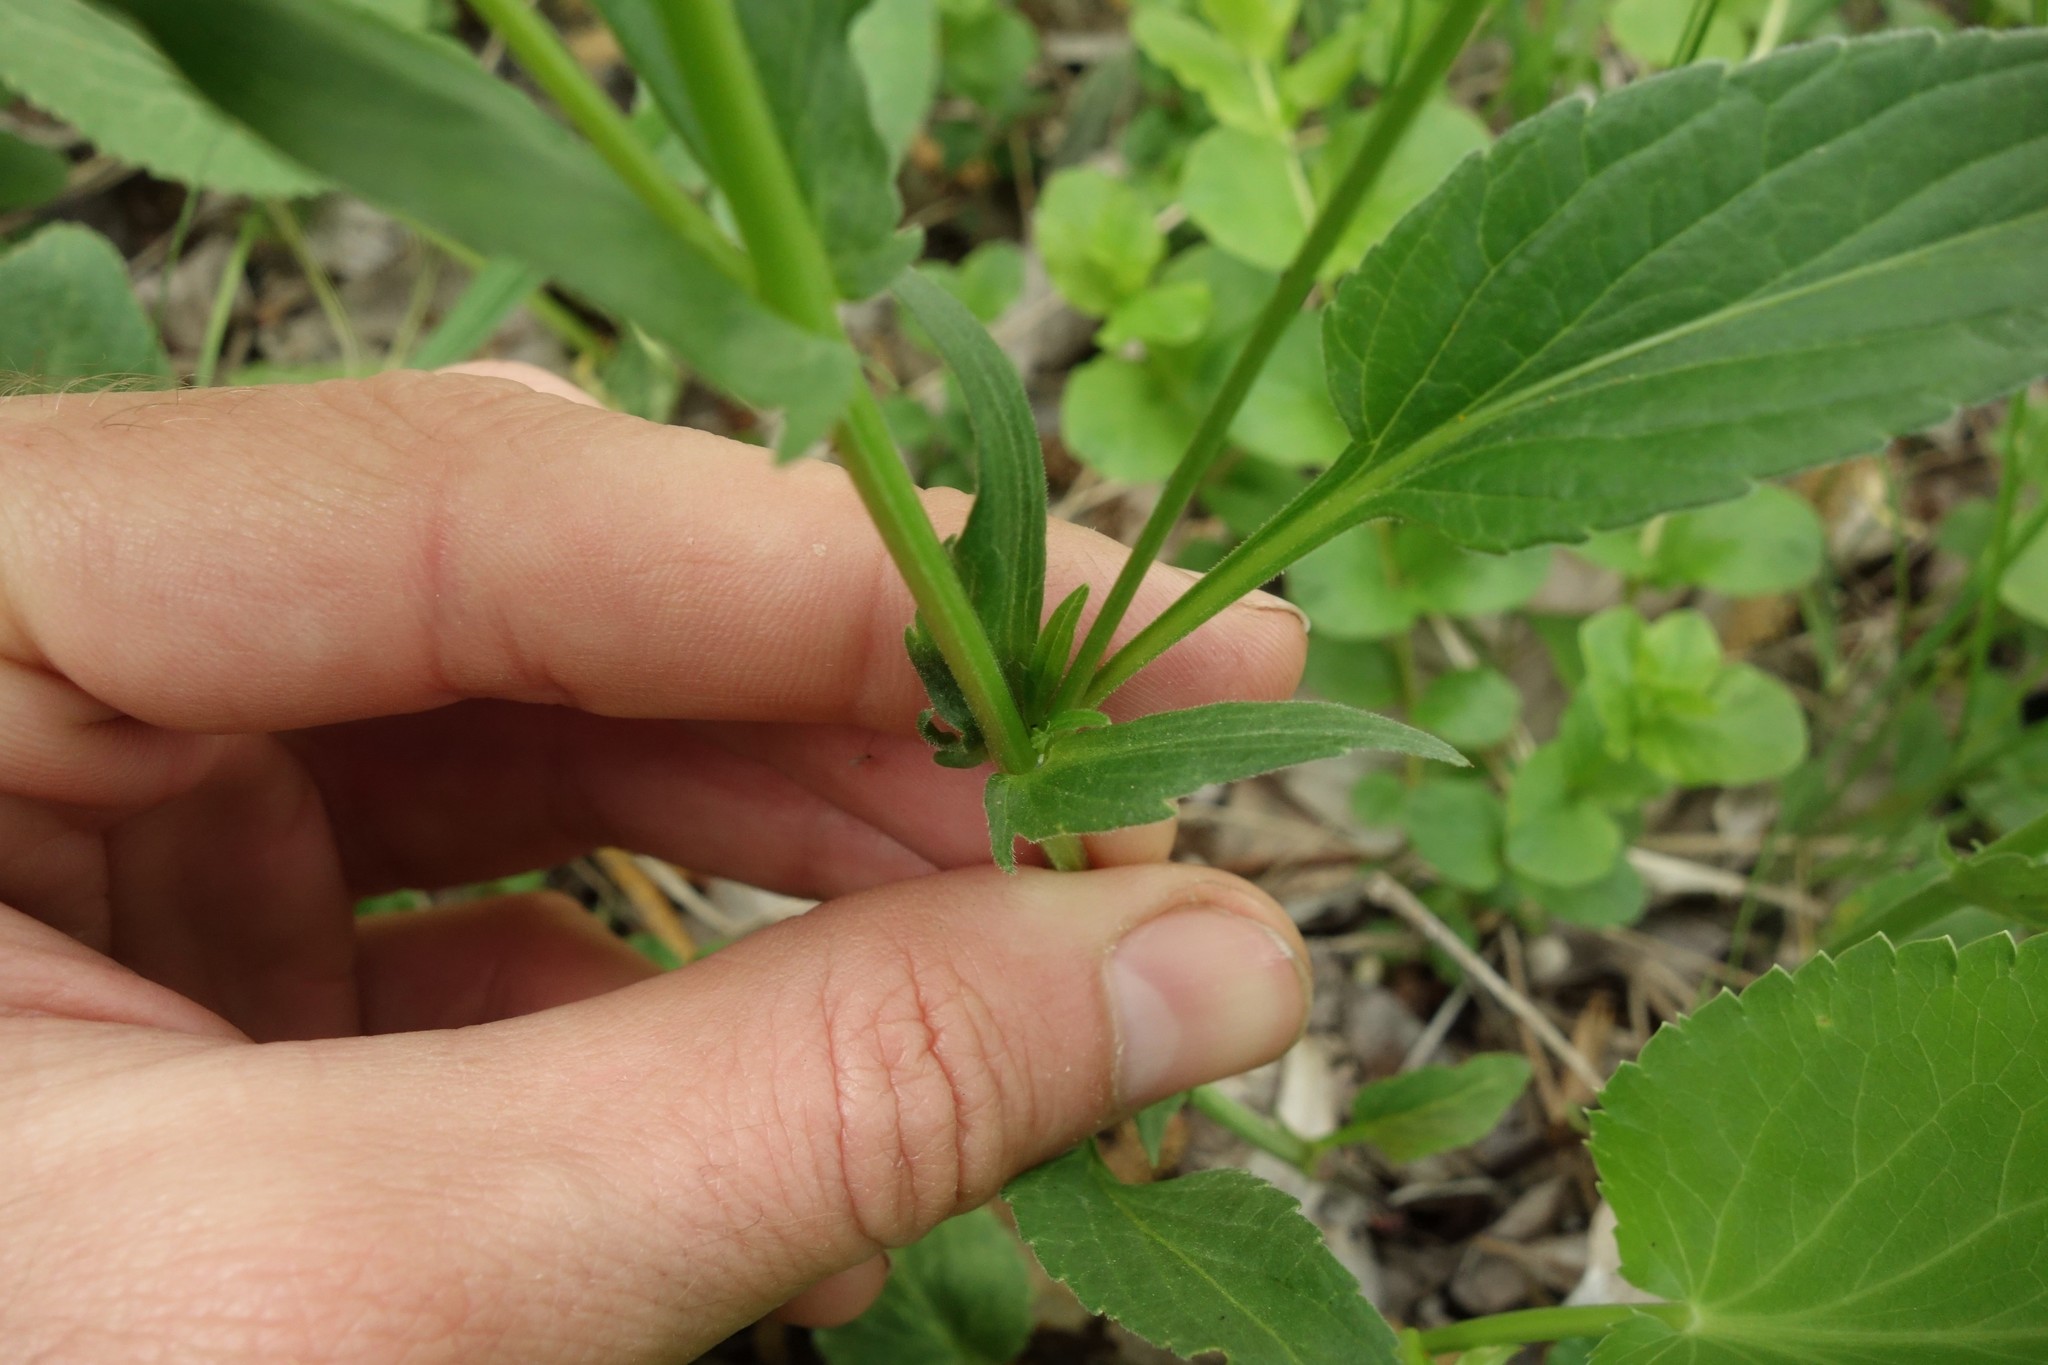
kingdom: Plantae
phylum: Tracheophyta
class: Magnoliopsida
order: Malpighiales
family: Violaceae
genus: Viola
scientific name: Viola elatior
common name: Tall violet
